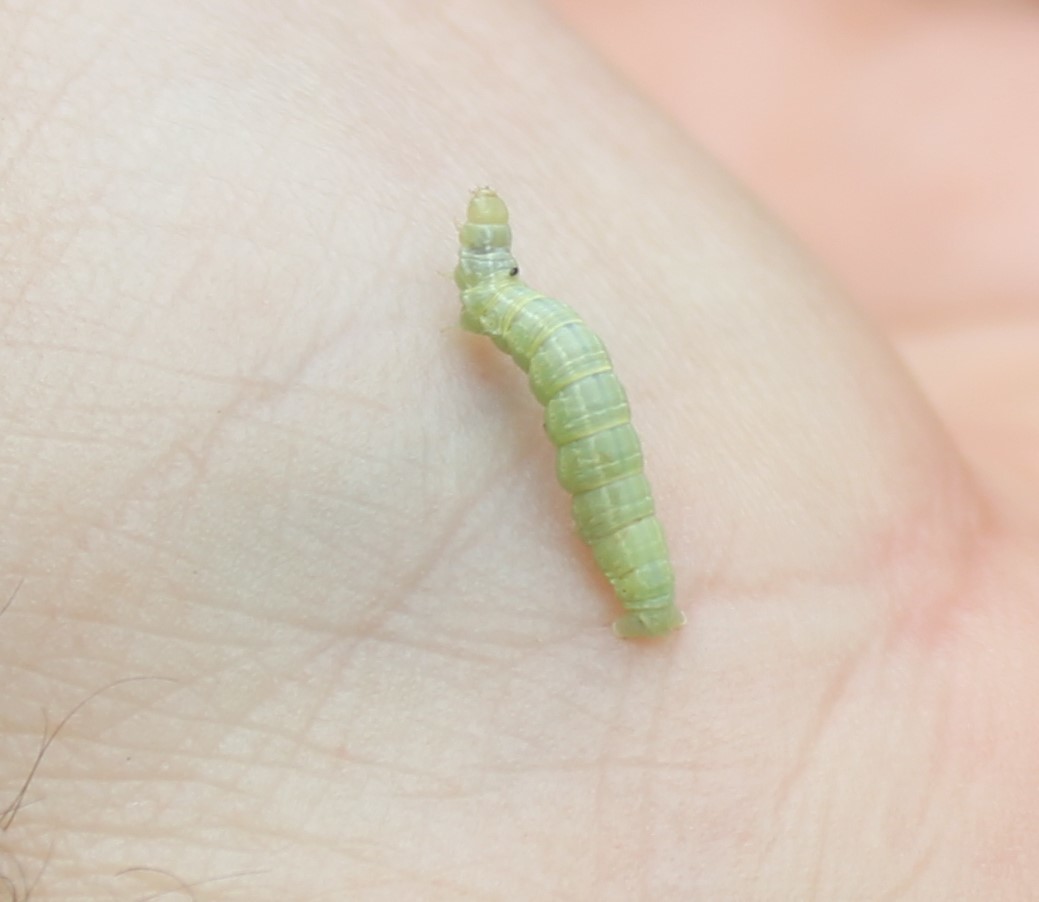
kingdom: Animalia
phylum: Arthropoda
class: Insecta
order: Lepidoptera
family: Geometridae
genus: Operophtera
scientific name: Operophtera
